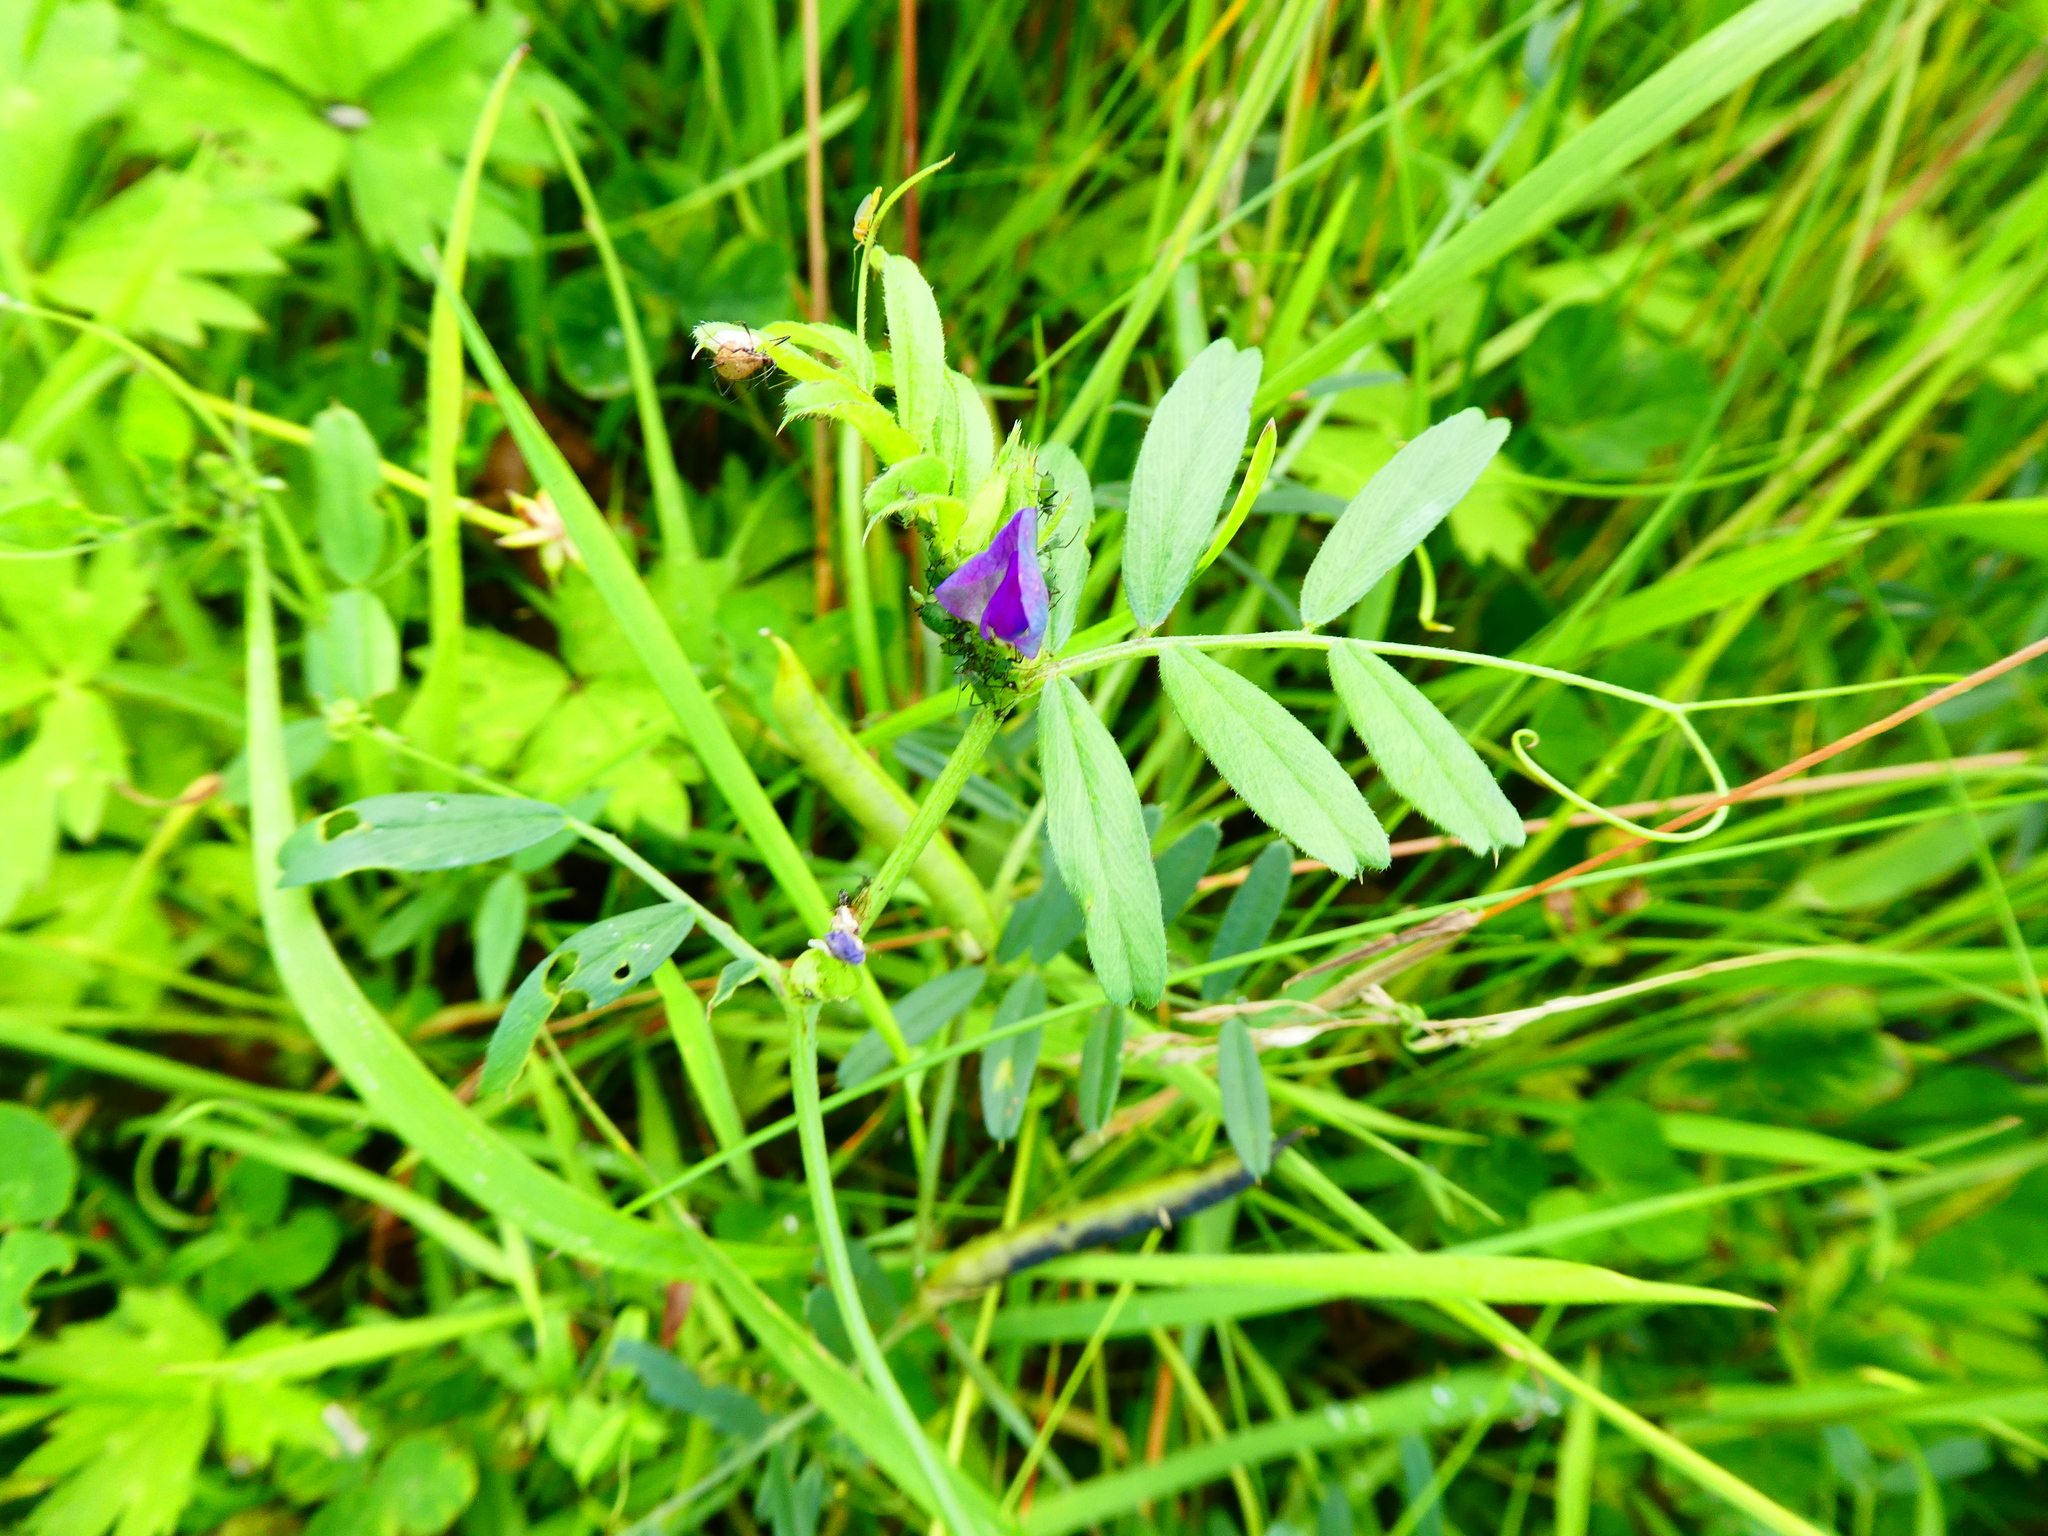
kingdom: Plantae
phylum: Tracheophyta
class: Magnoliopsida
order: Fabales
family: Fabaceae
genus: Vicia
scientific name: Vicia sativa
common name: Garden vetch
